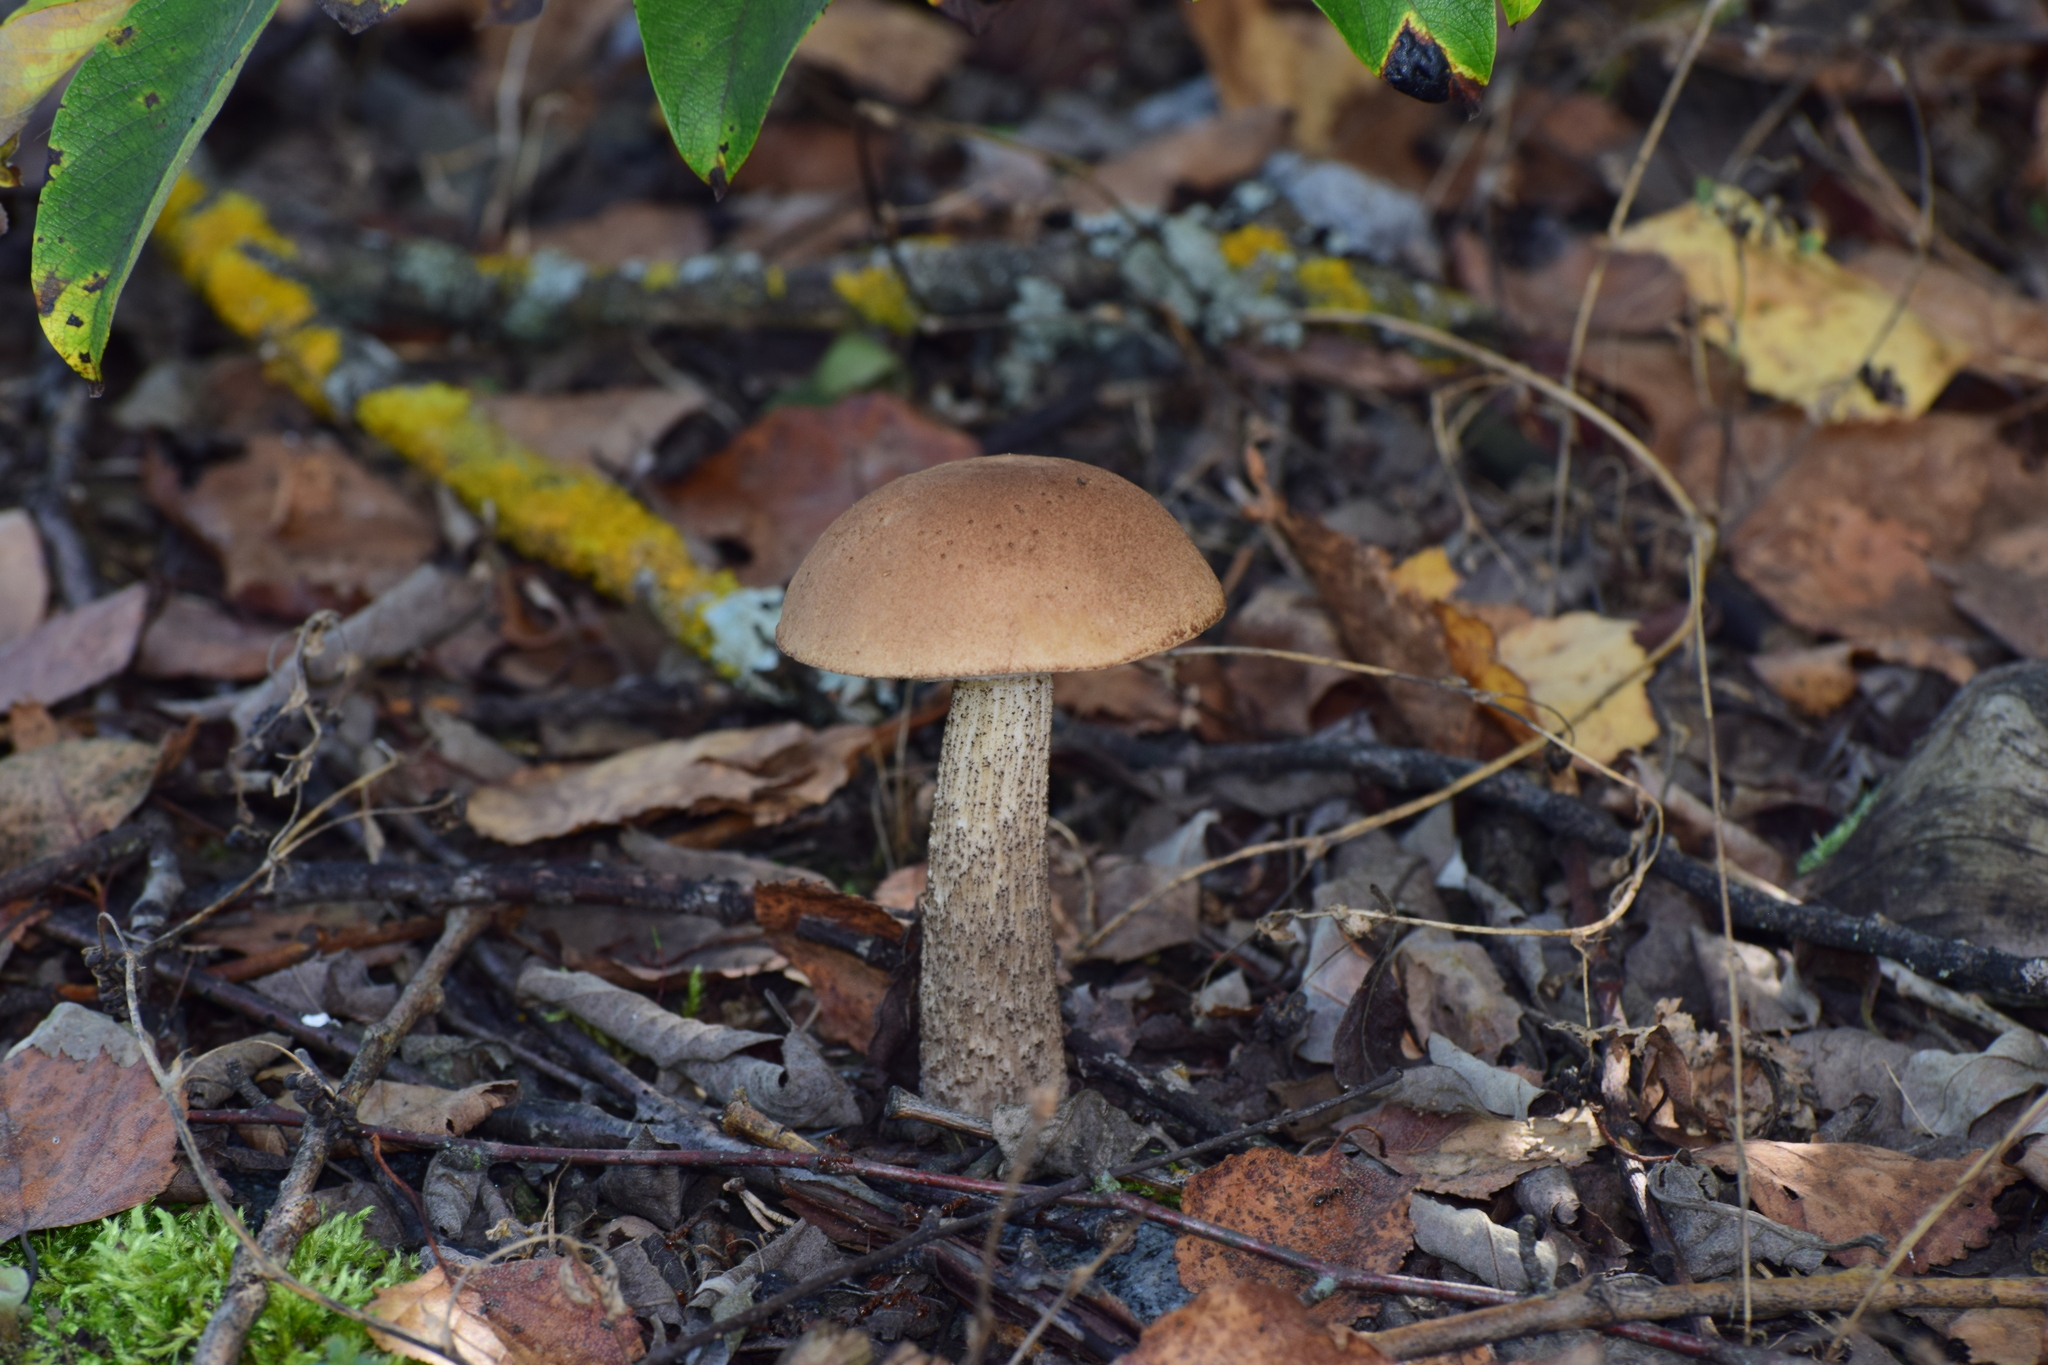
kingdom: Fungi
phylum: Basidiomycota
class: Agaricomycetes
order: Boletales
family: Boletaceae
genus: Leccinum
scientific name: Leccinum scabrum
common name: Blushing bolete
